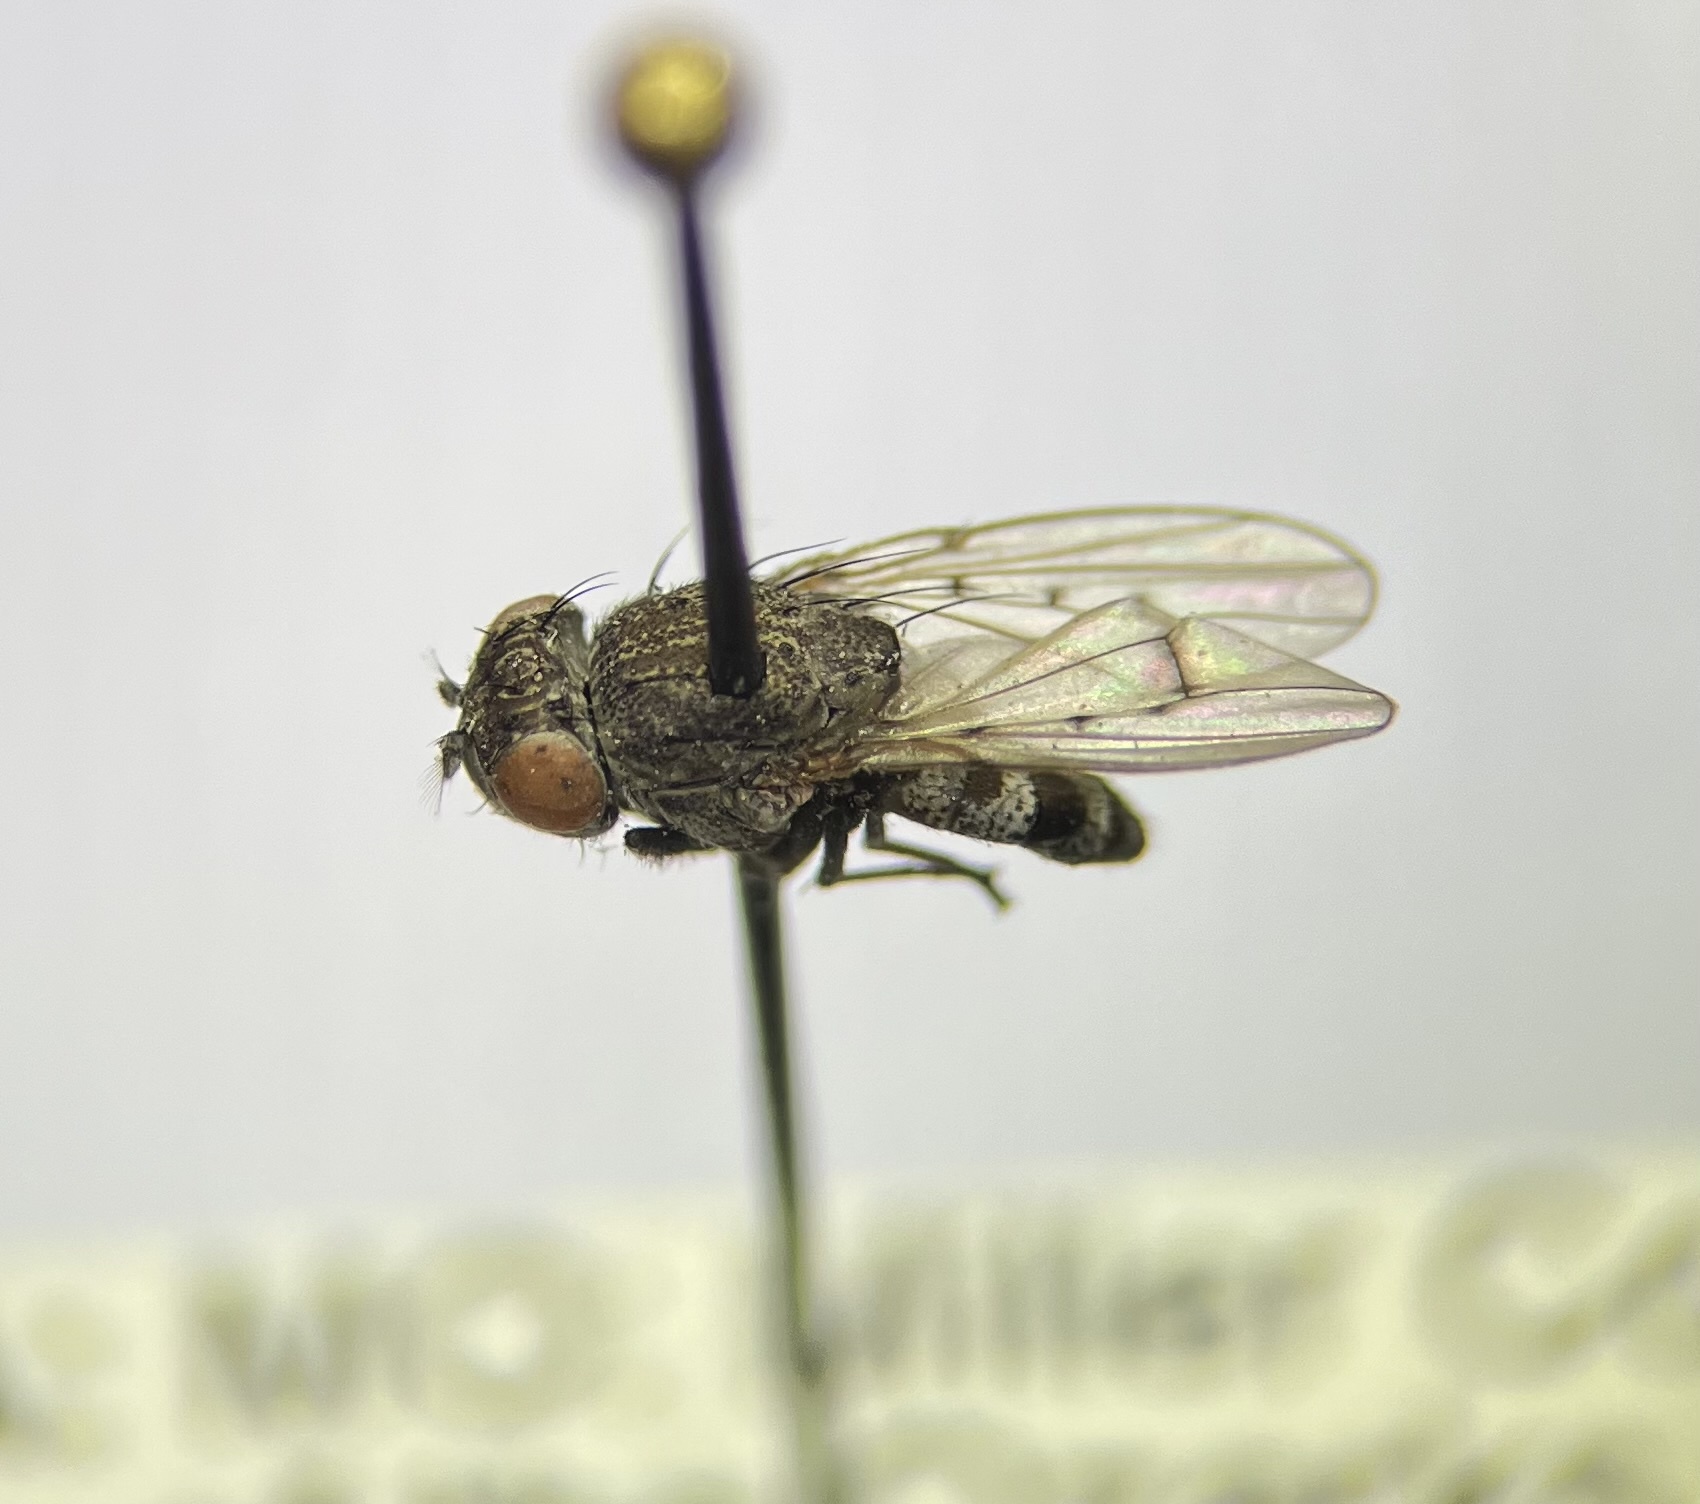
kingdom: Animalia
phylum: Arthropoda
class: Insecta
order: Diptera
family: Ephydridae
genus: Paralimna
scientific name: Paralimna punctipennis
